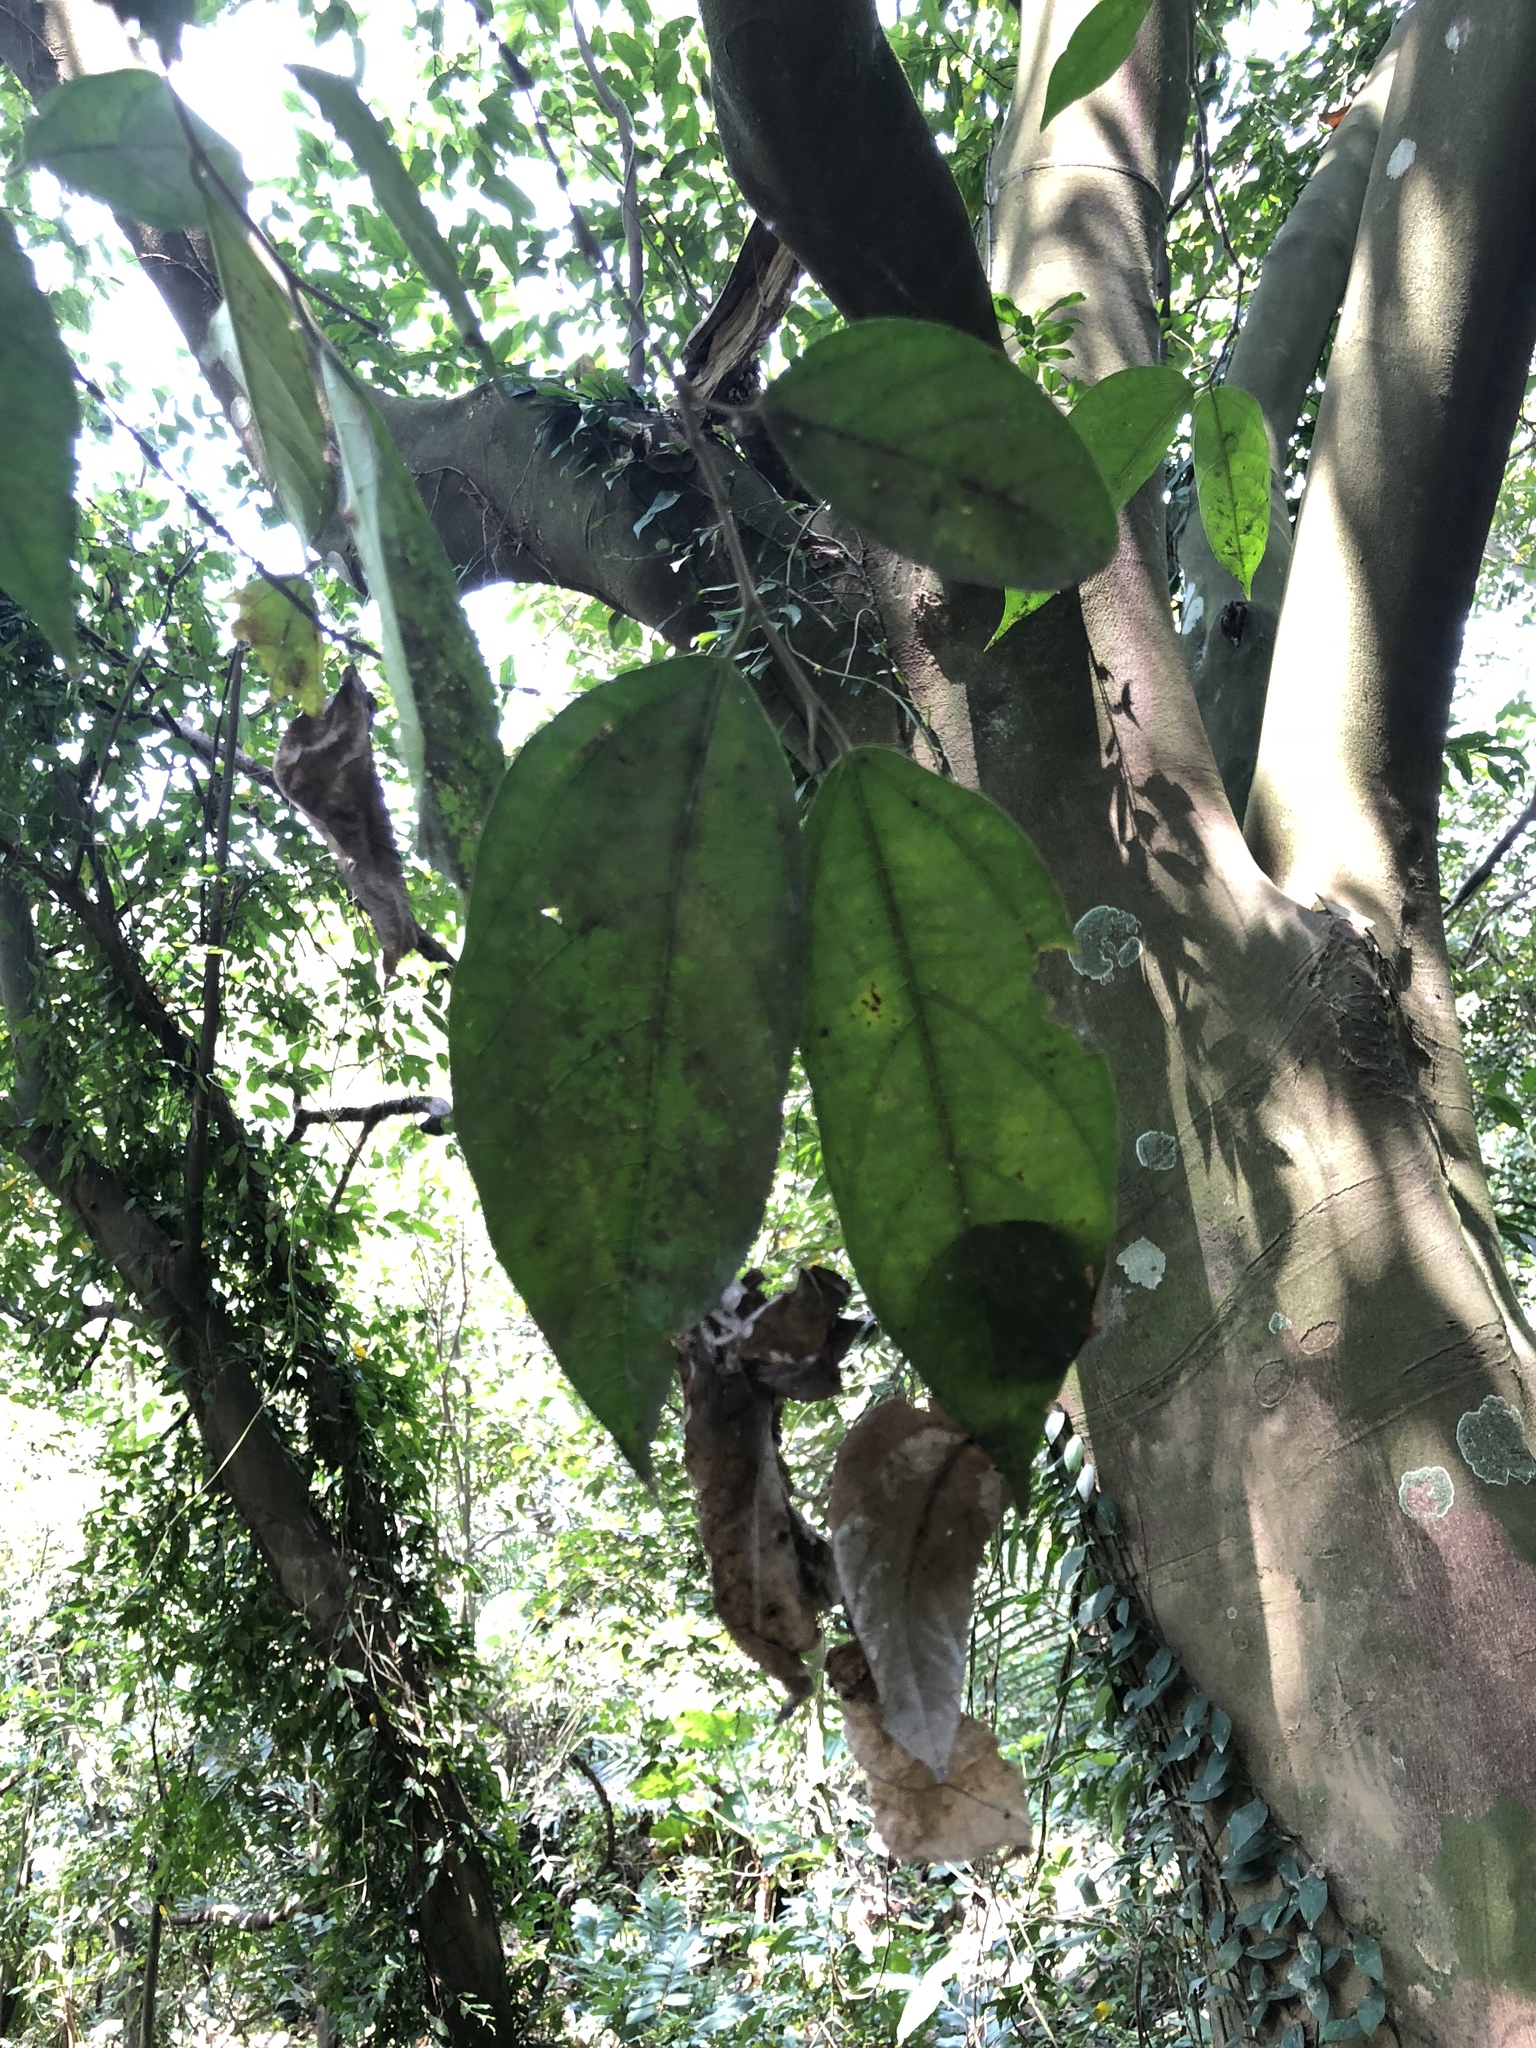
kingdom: Plantae
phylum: Tracheophyta
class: Magnoliopsida
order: Rosales
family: Moraceae
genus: Ficus
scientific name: Ficus ampelos
